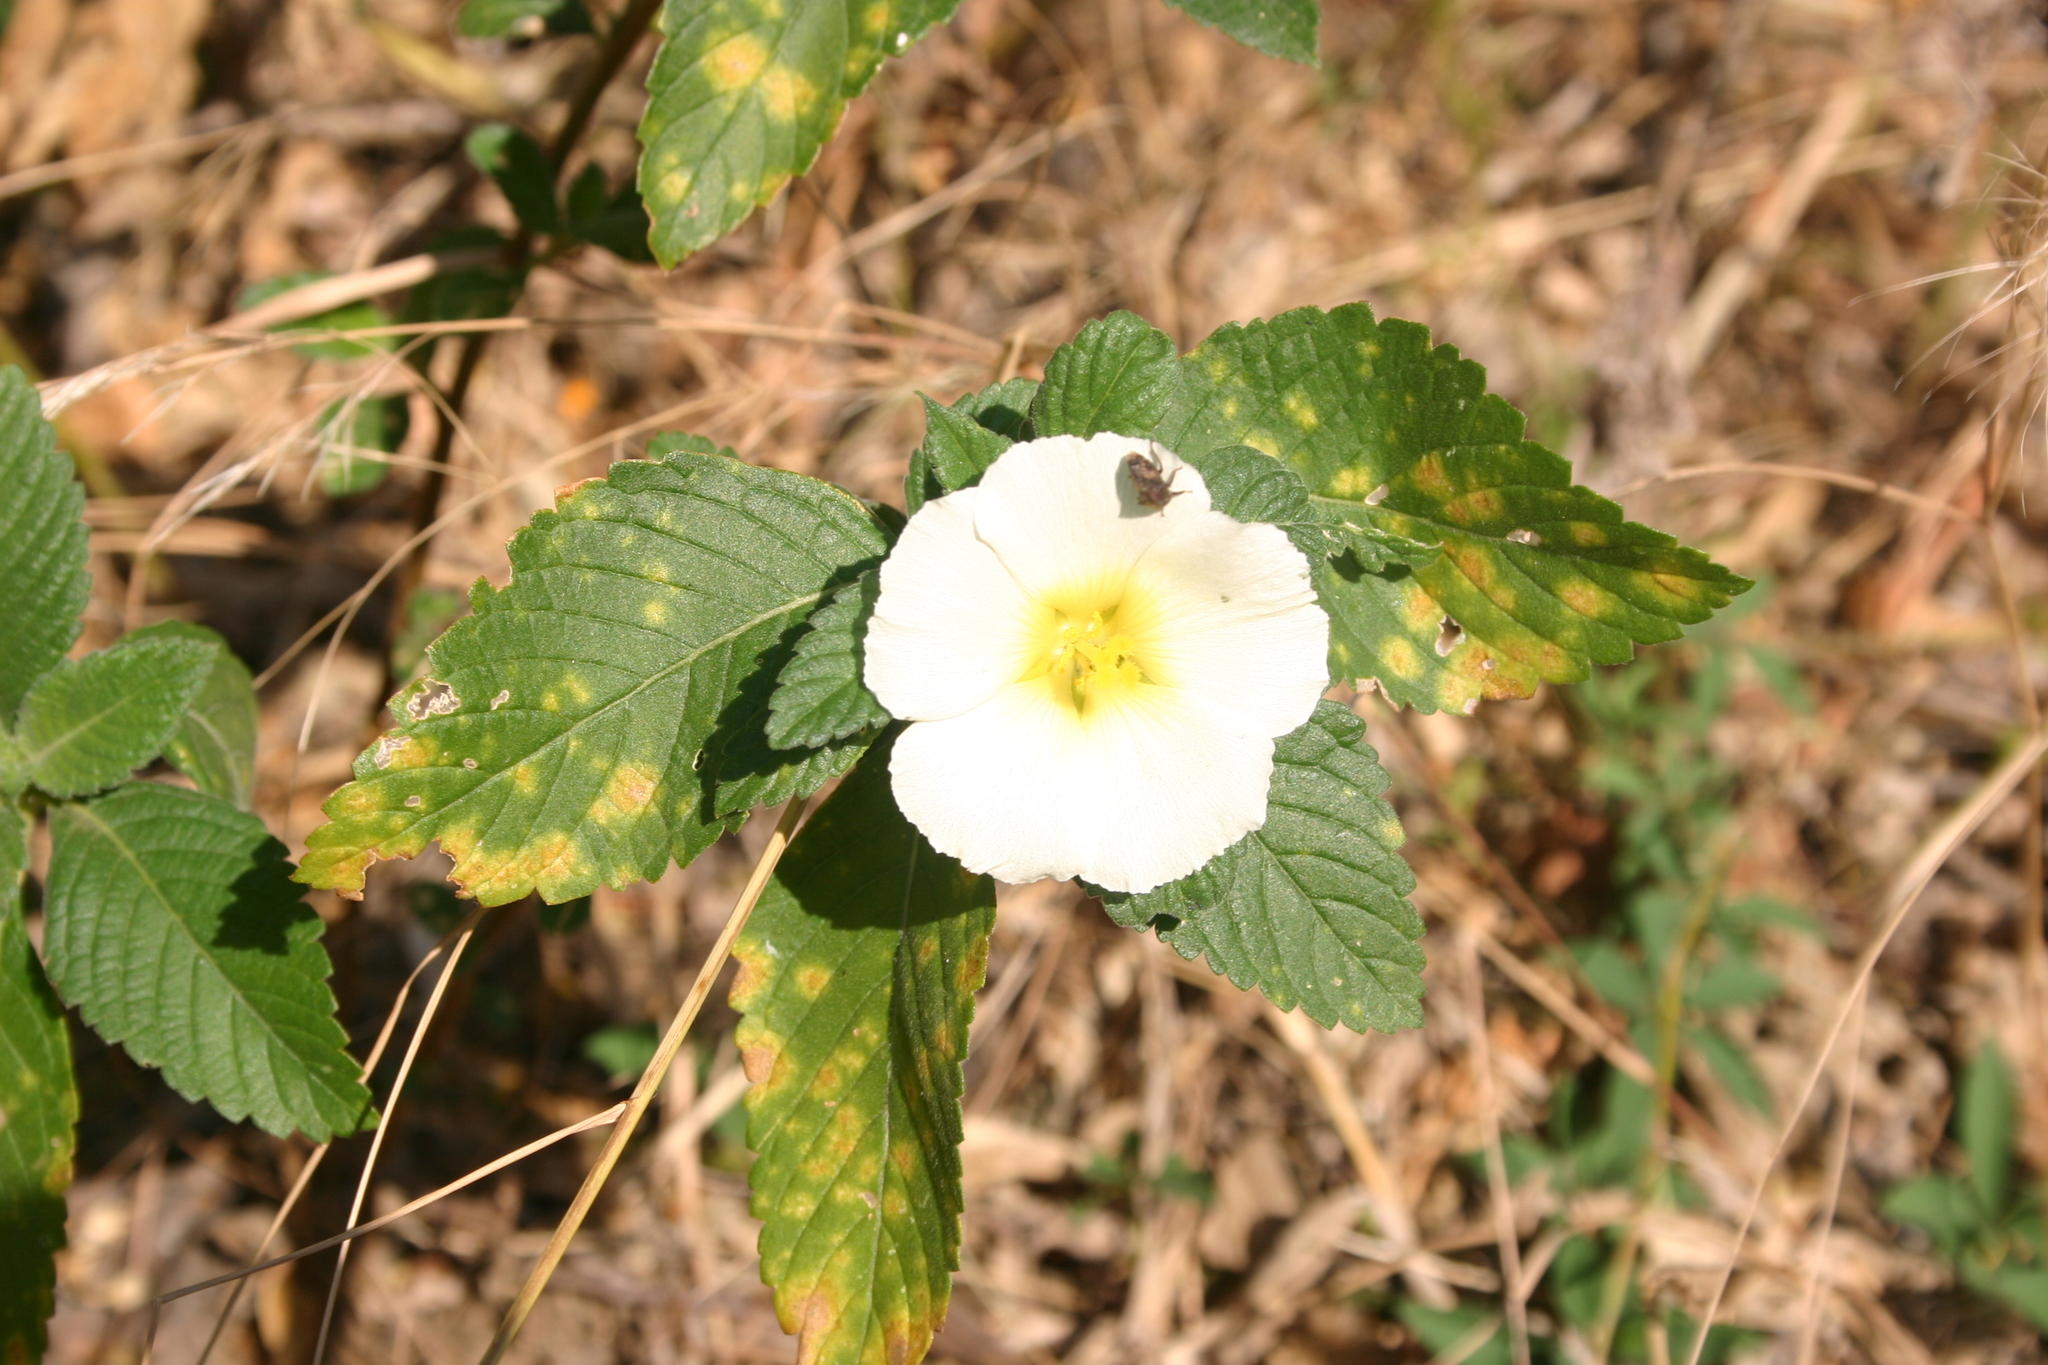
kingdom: Plantae
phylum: Tracheophyta
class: Magnoliopsida
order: Malpighiales
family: Turneraceae
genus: Turnera
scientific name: Turnera ulmifolia
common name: Ramgoat dashalong
